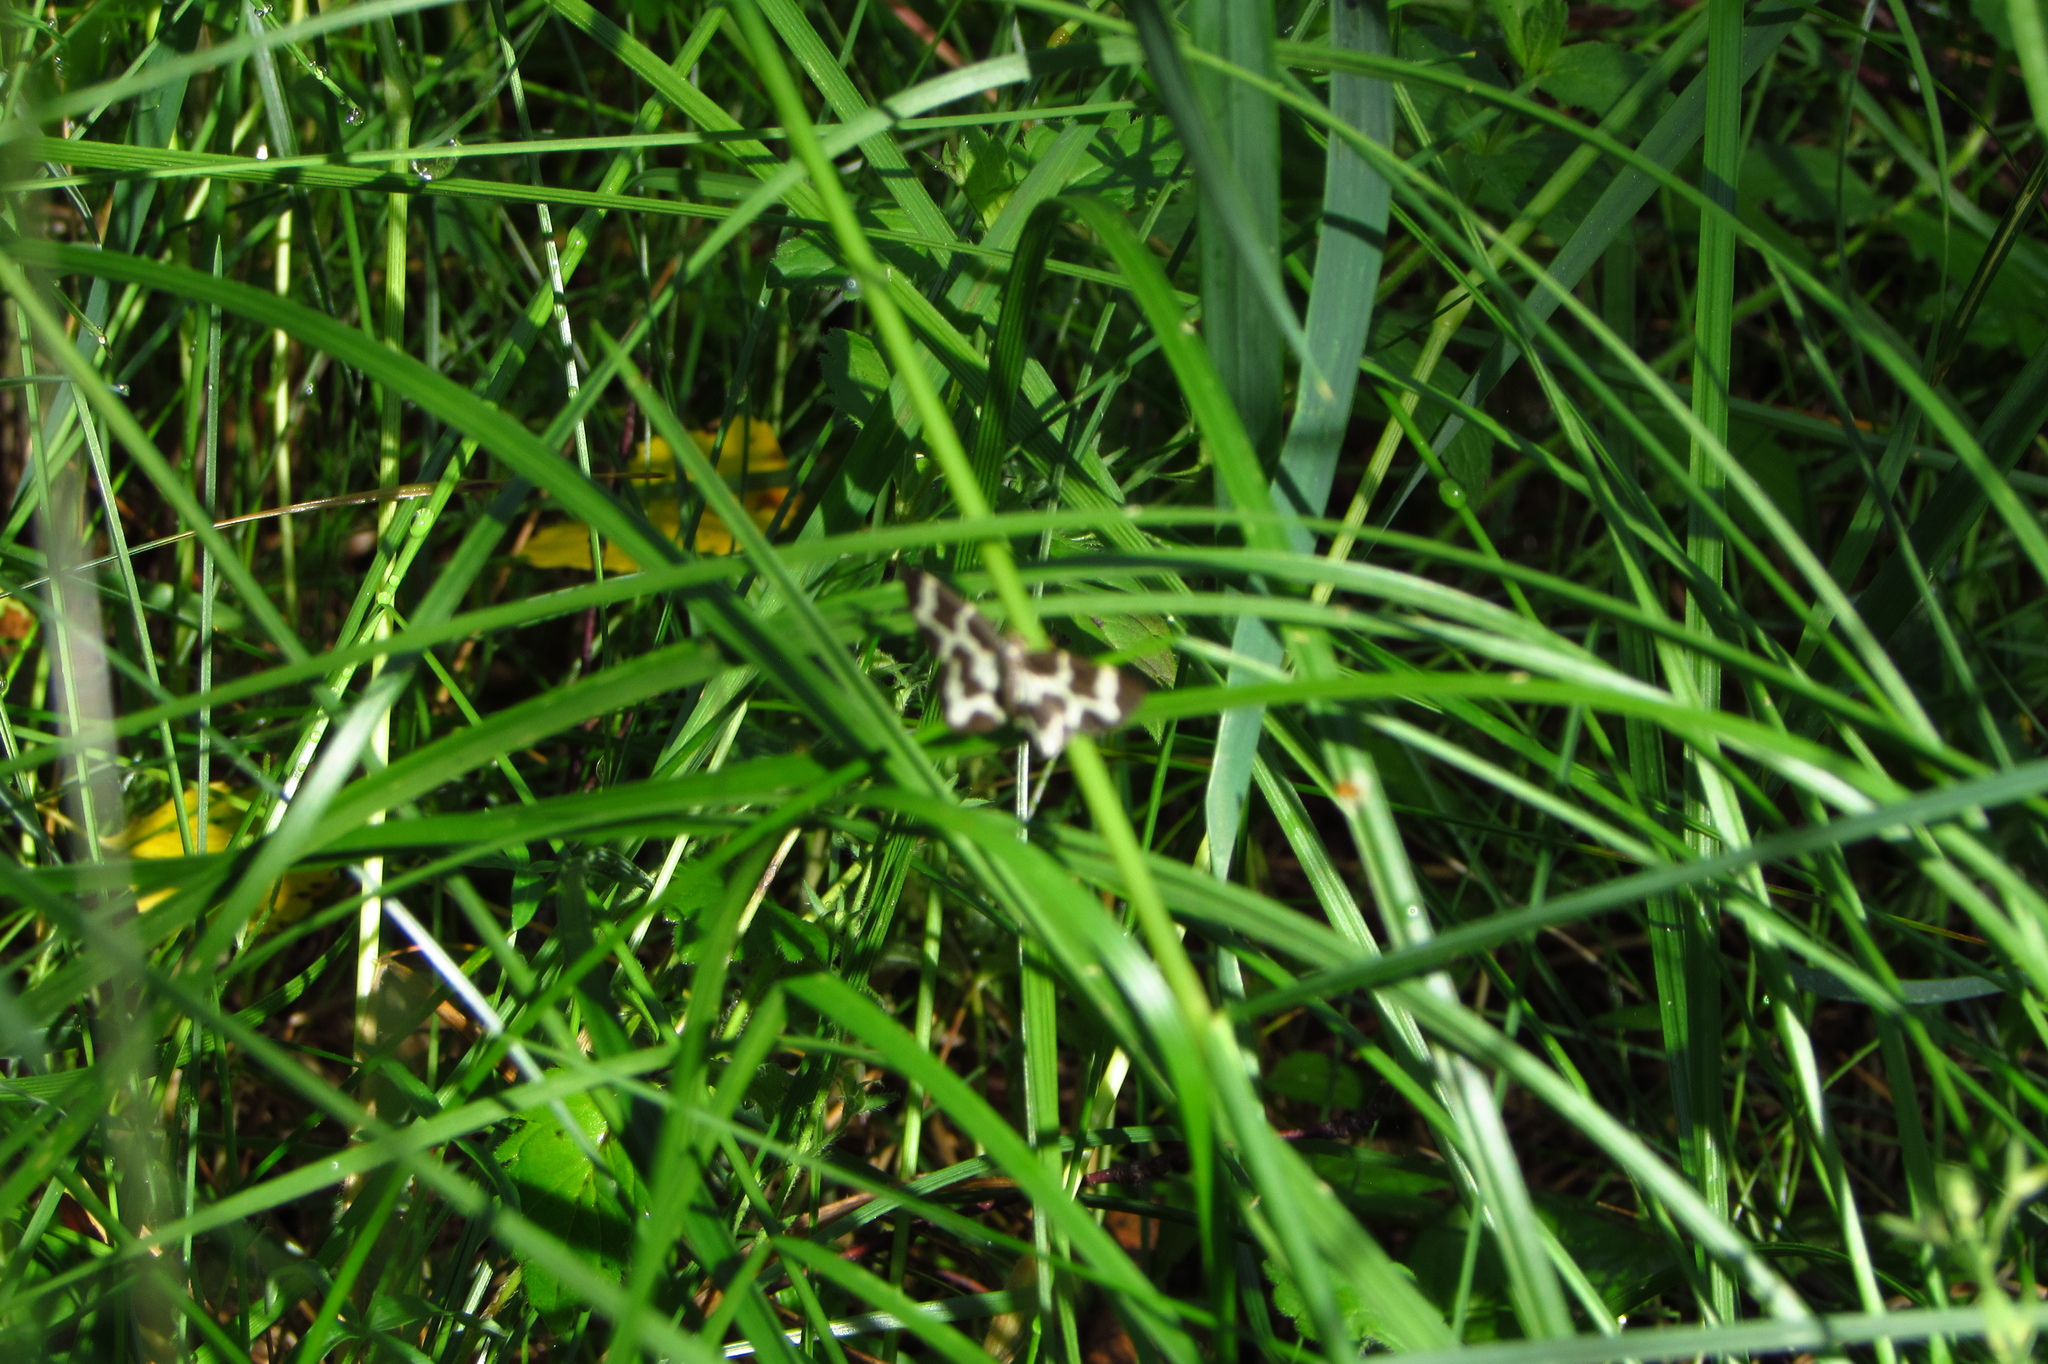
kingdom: Animalia
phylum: Arthropoda
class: Insecta
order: Lepidoptera
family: Geometridae
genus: Lomaspilis
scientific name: Lomaspilis opis
